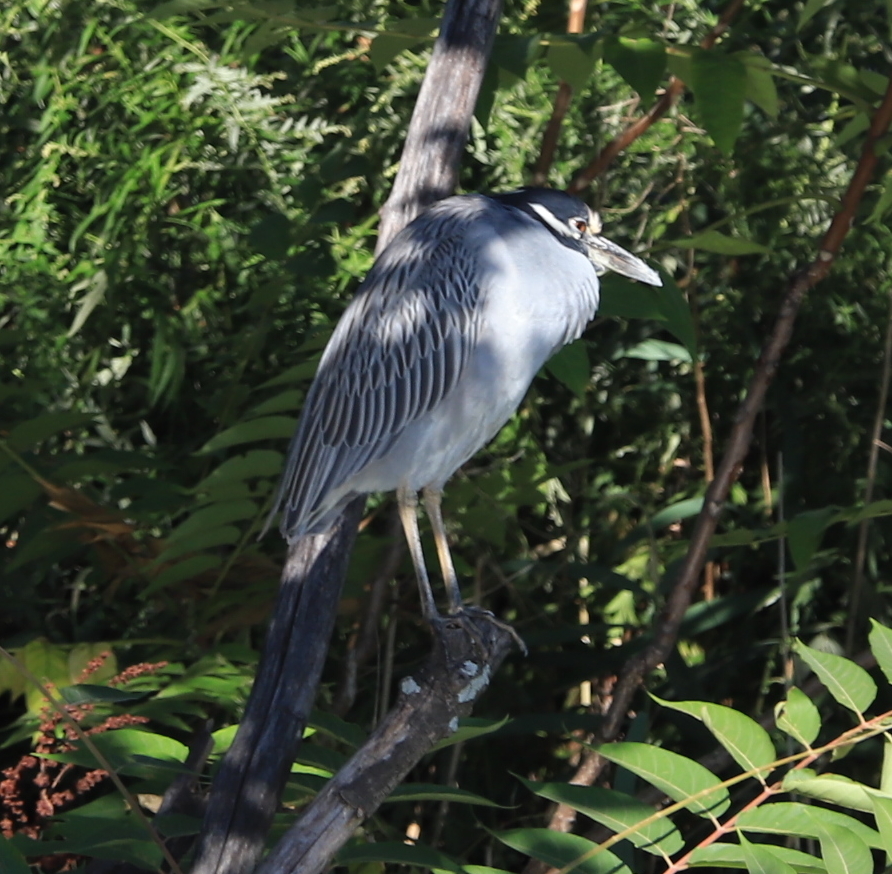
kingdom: Animalia
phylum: Chordata
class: Aves
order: Pelecaniformes
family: Ardeidae
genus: Nyctanassa
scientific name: Nyctanassa violacea
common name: Yellow-crowned night heron
